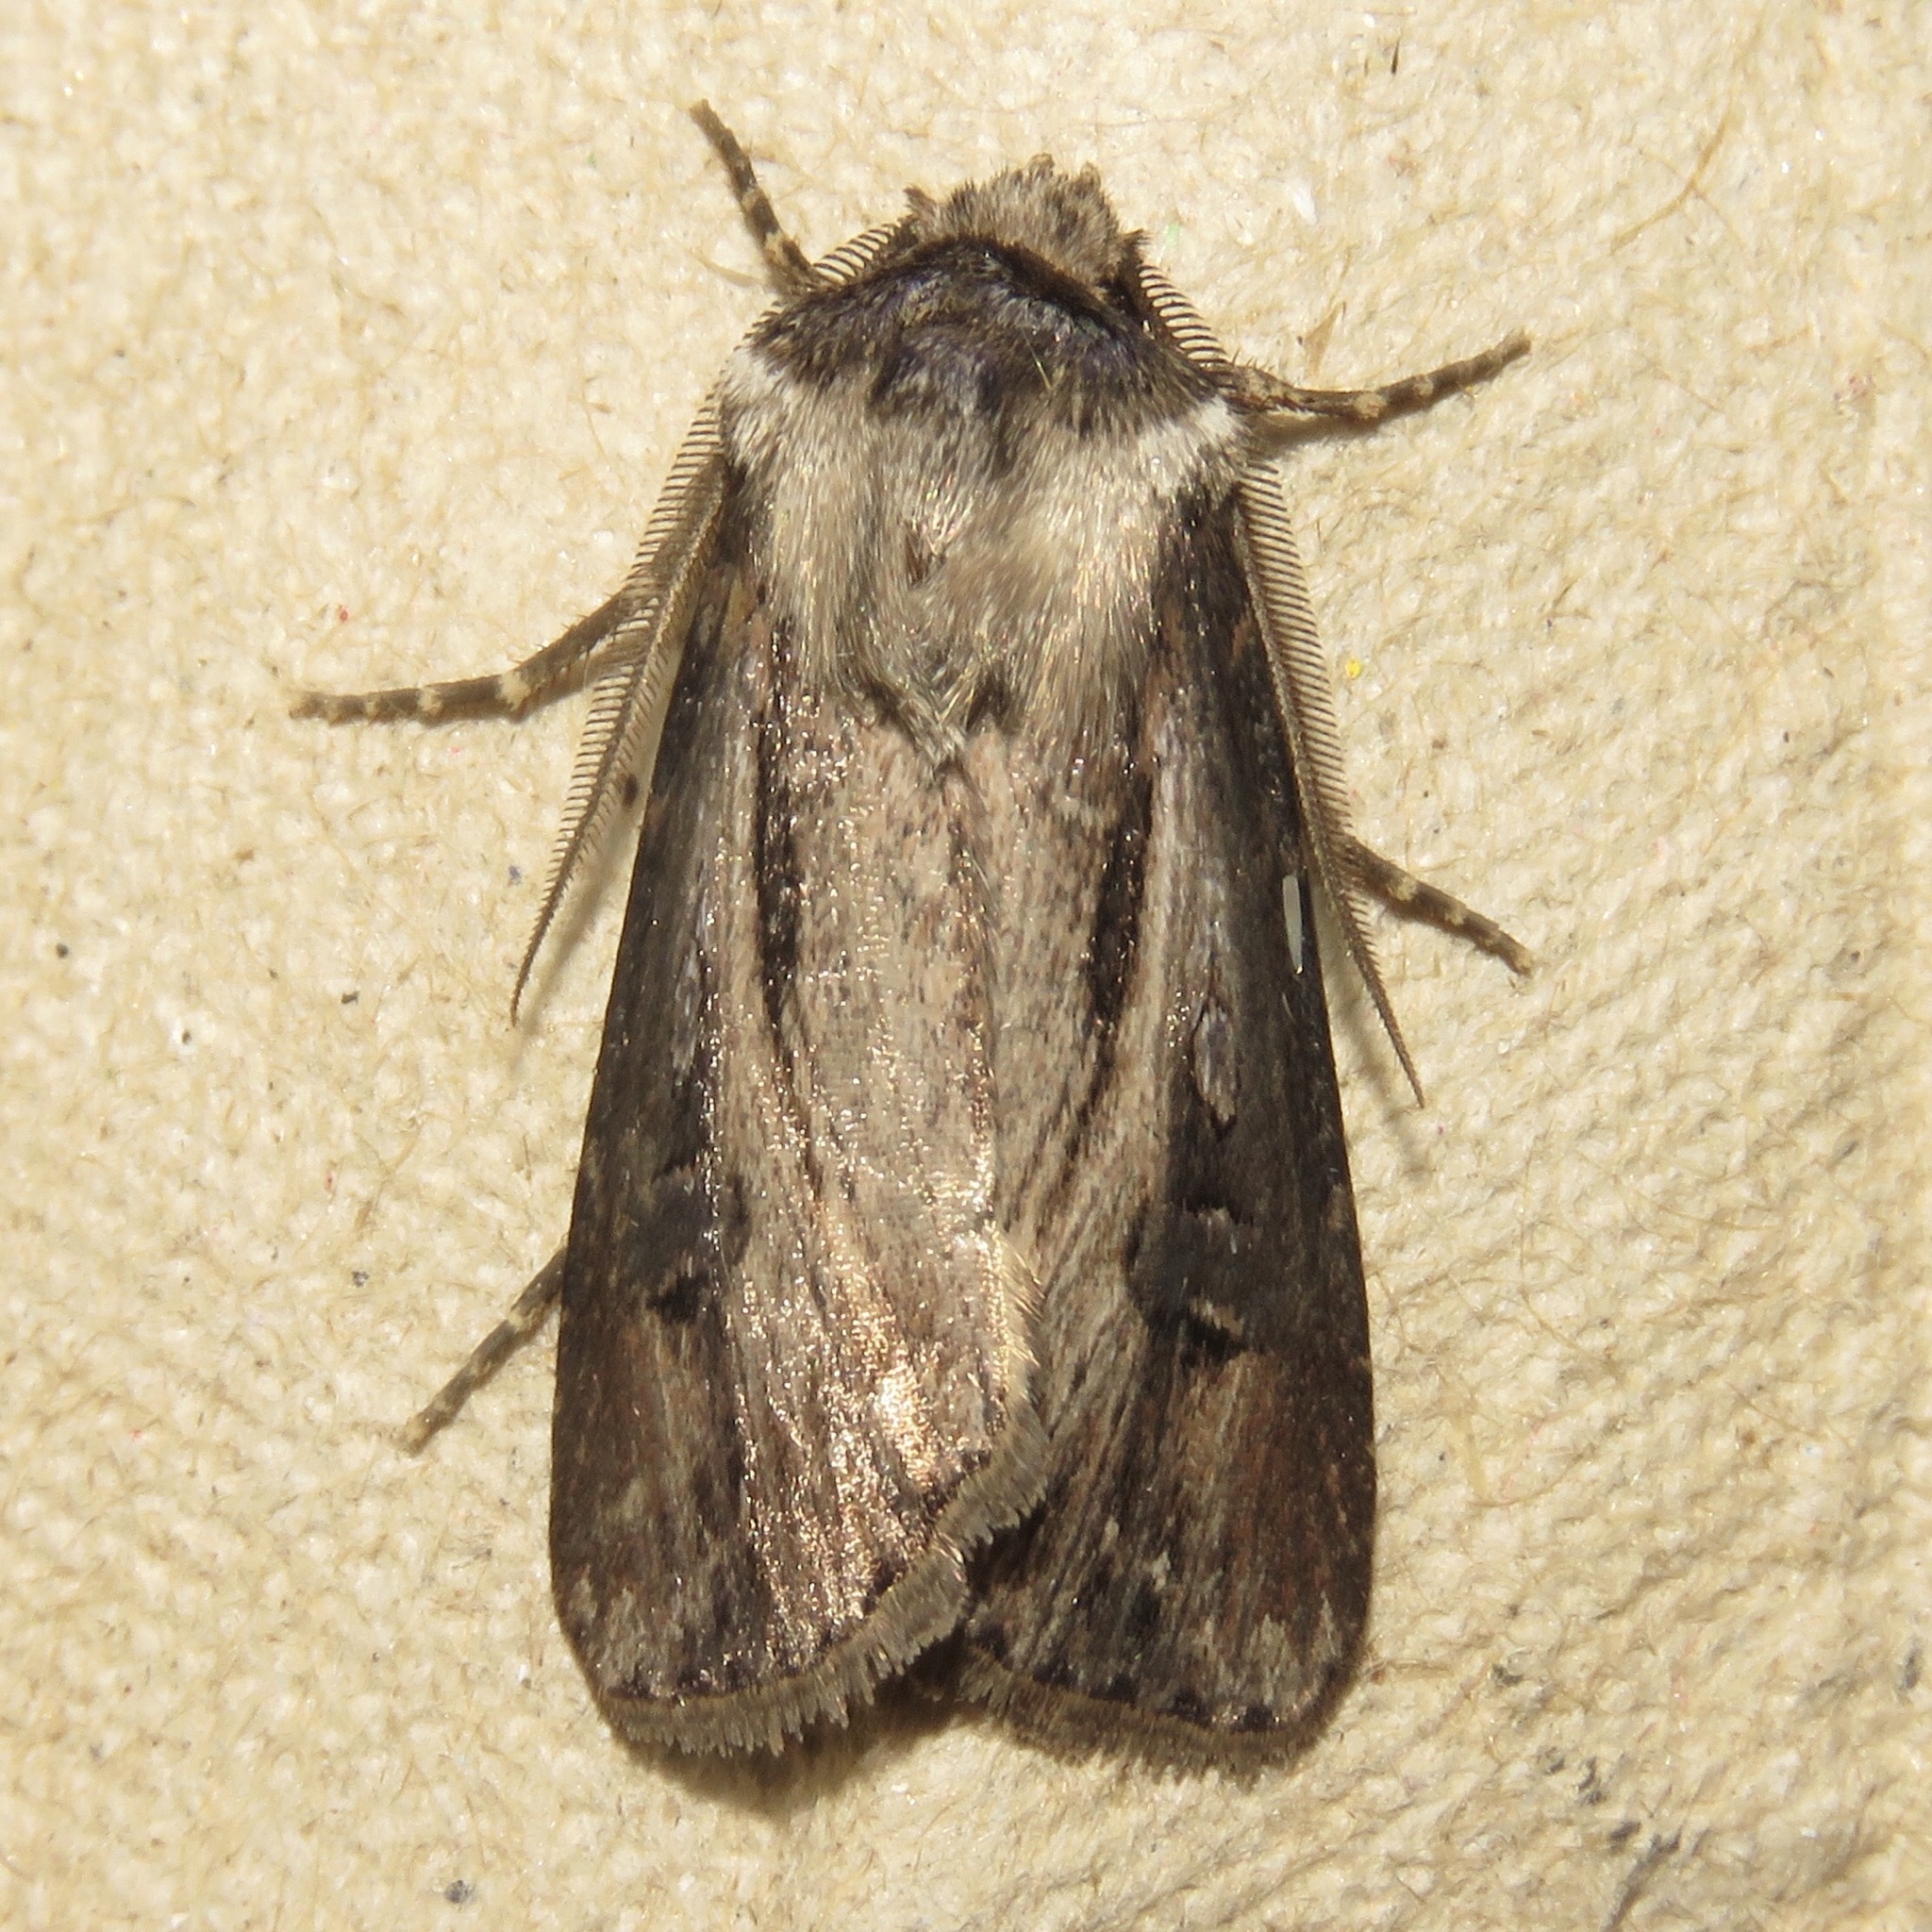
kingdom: Animalia
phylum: Arthropoda
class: Insecta
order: Lepidoptera
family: Noctuidae
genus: Agrotis
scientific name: Agrotis venerabilis
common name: Venerable dart
